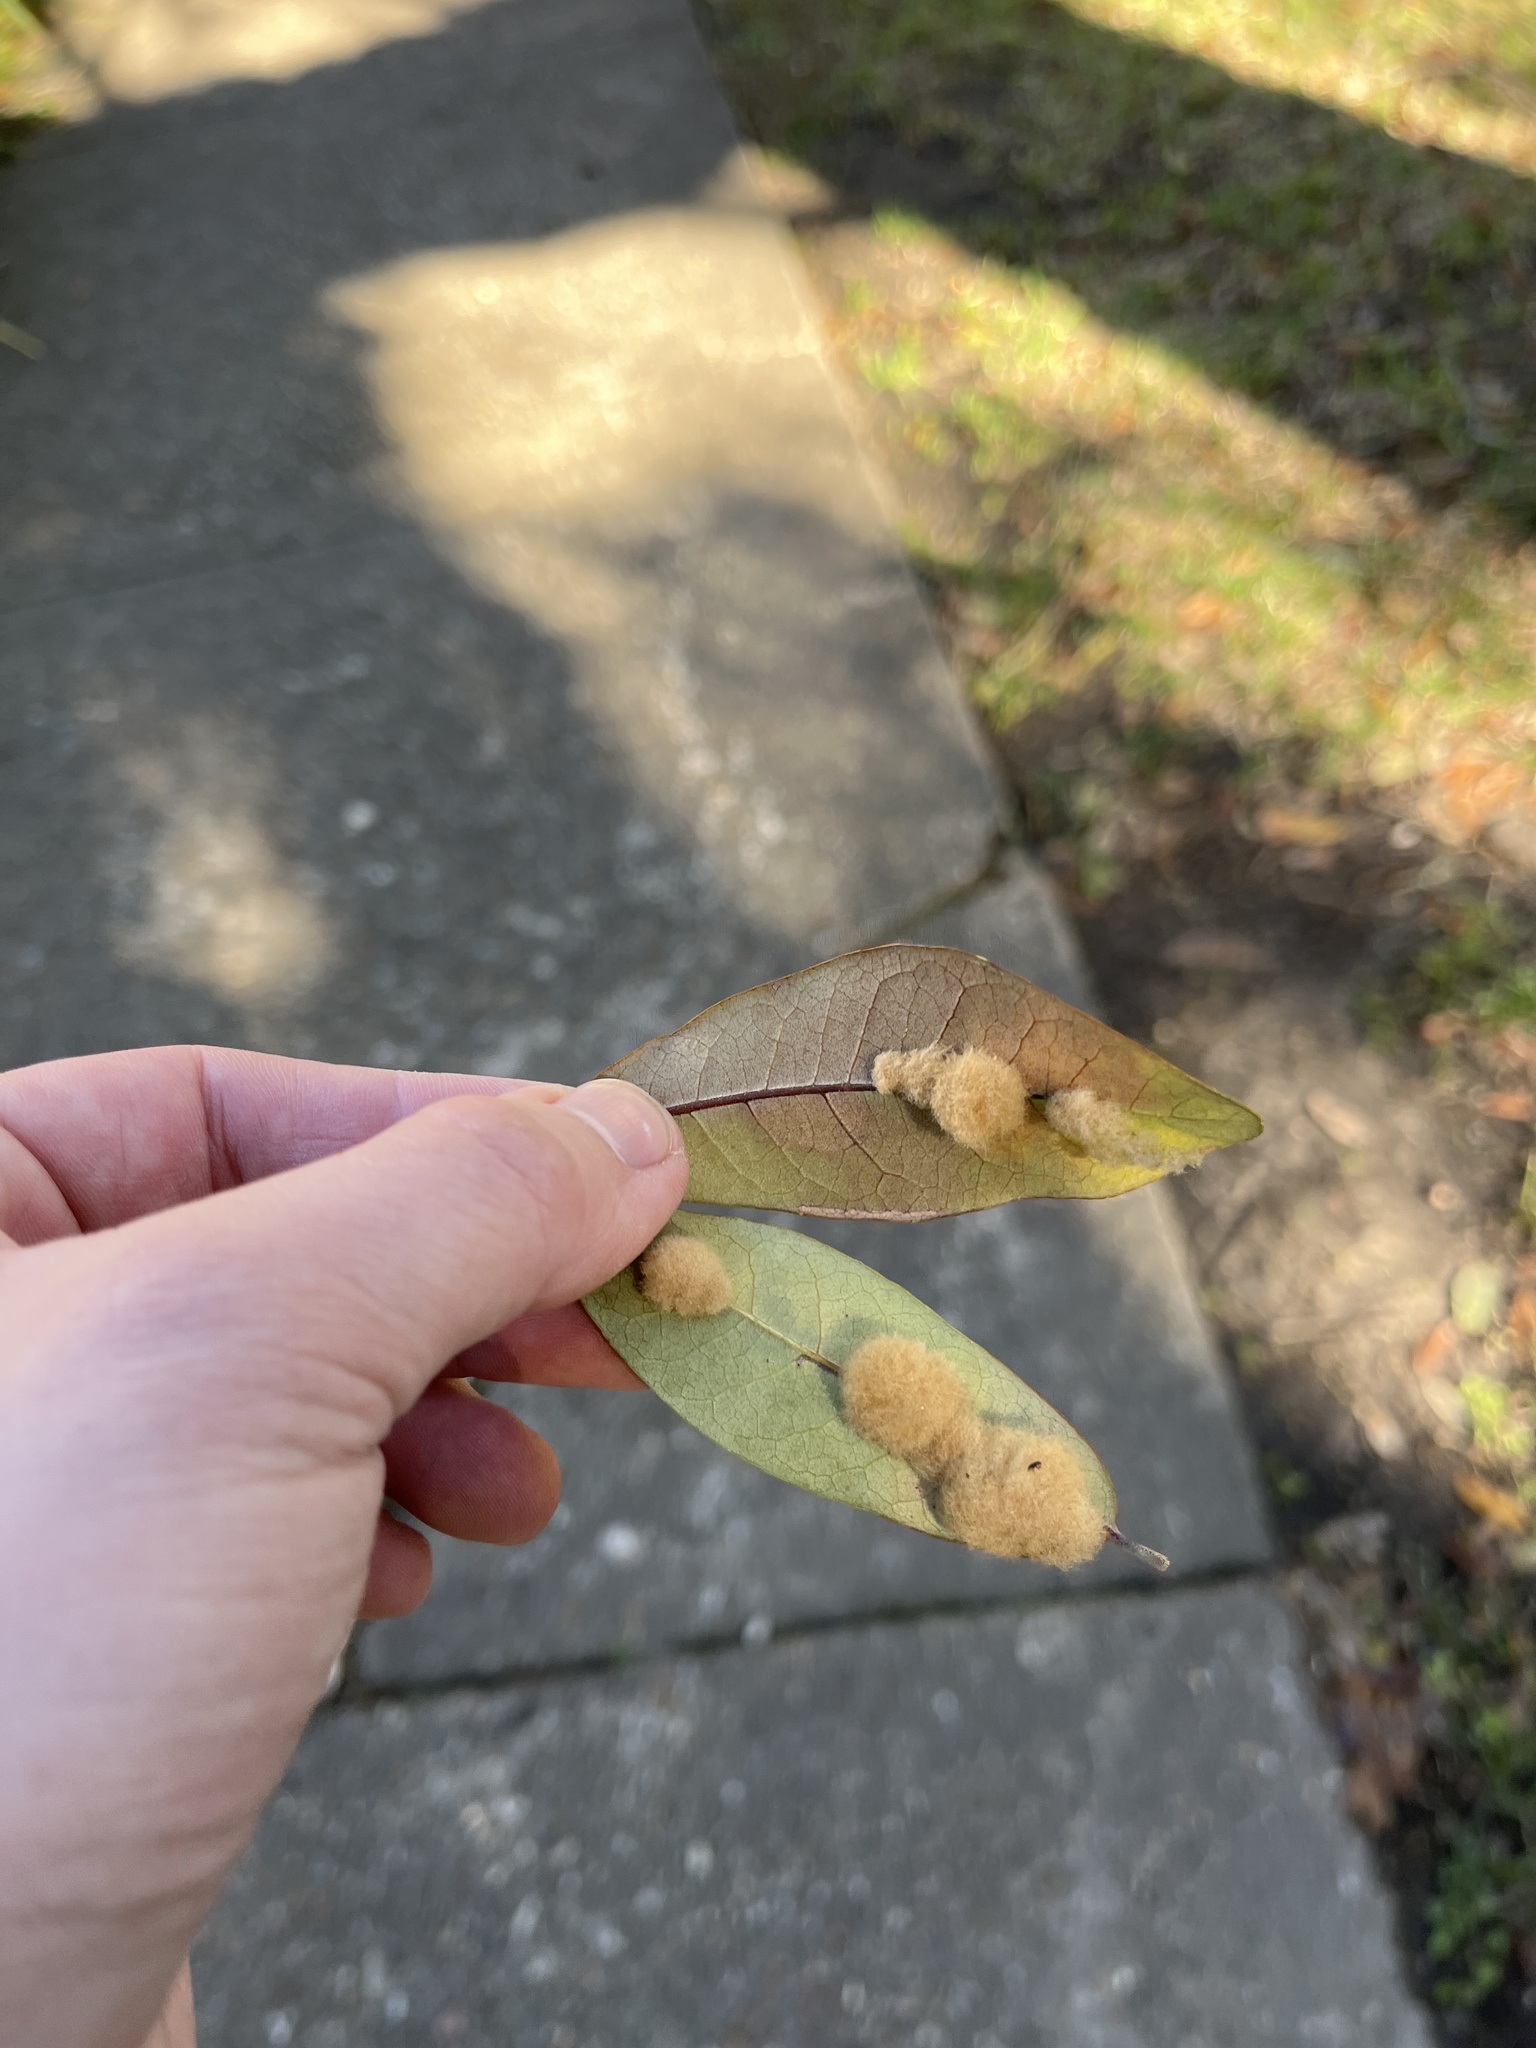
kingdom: Animalia
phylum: Arthropoda
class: Insecta
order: Hymenoptera
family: Cynipidae
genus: Andricus
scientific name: Andricus Druon quercuslanigerum
